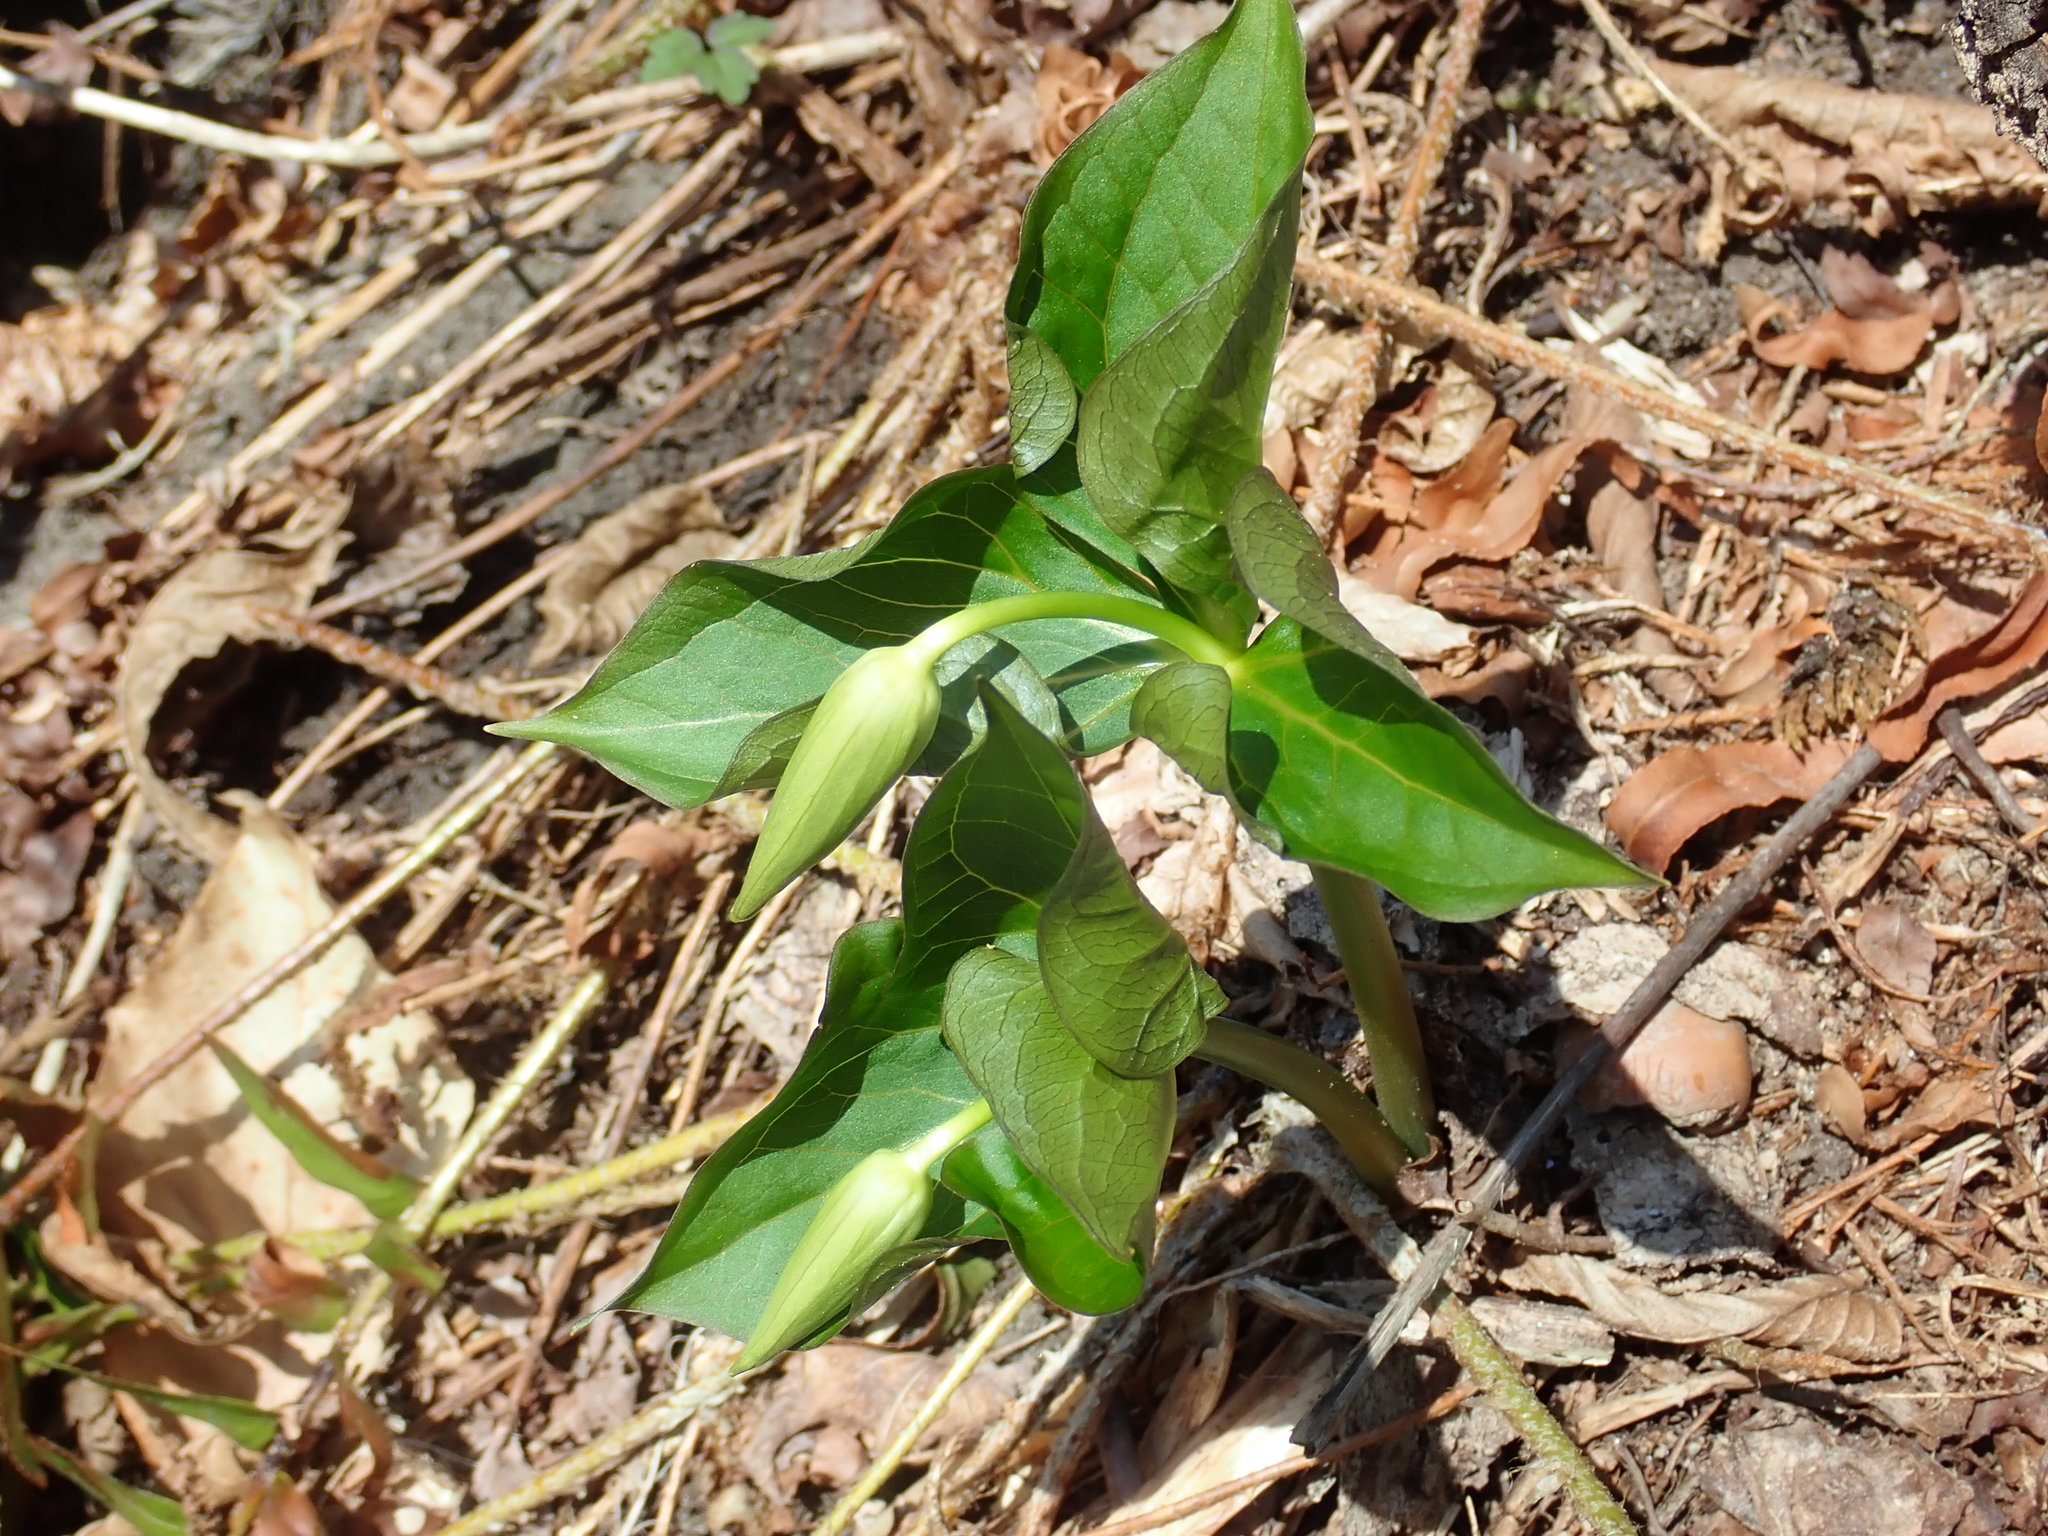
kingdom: Plantae
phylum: Tracheophyta
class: Liliopsida
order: Liliales
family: Melanthiaceae
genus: Trillium
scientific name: Trillium erectum
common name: Purple trillium
